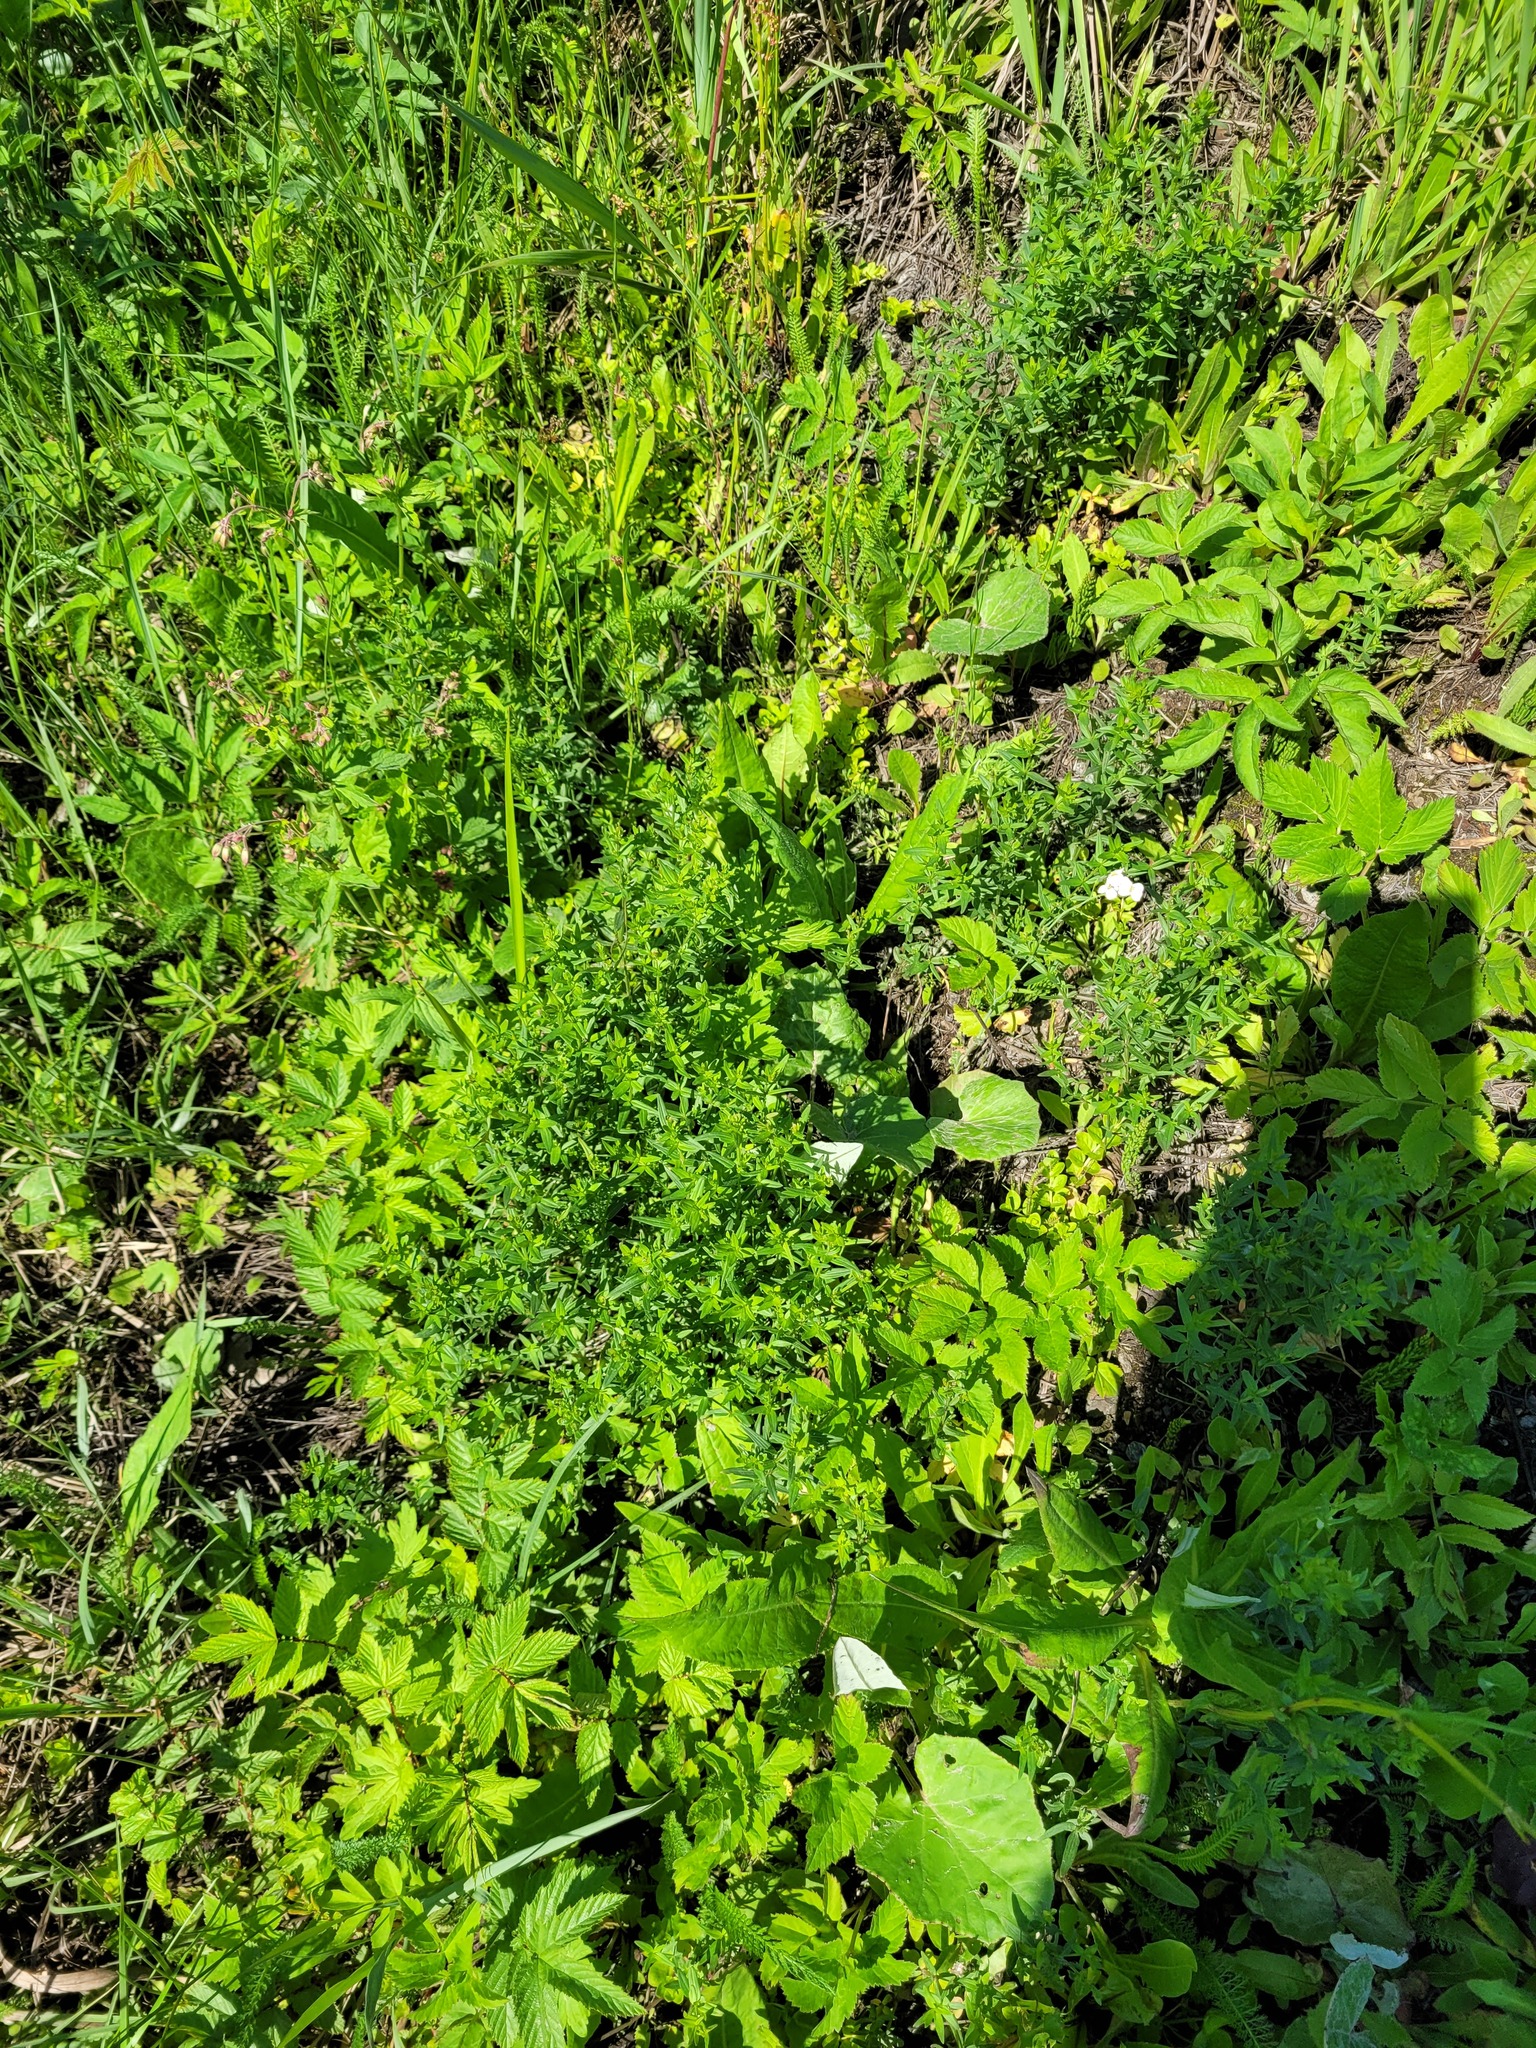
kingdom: Plantae
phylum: Tracheophyta
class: Magnoliopsida
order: Gentianales
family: Rubiaceae
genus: Galium
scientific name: Galium boreale
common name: Northern bedstraw
